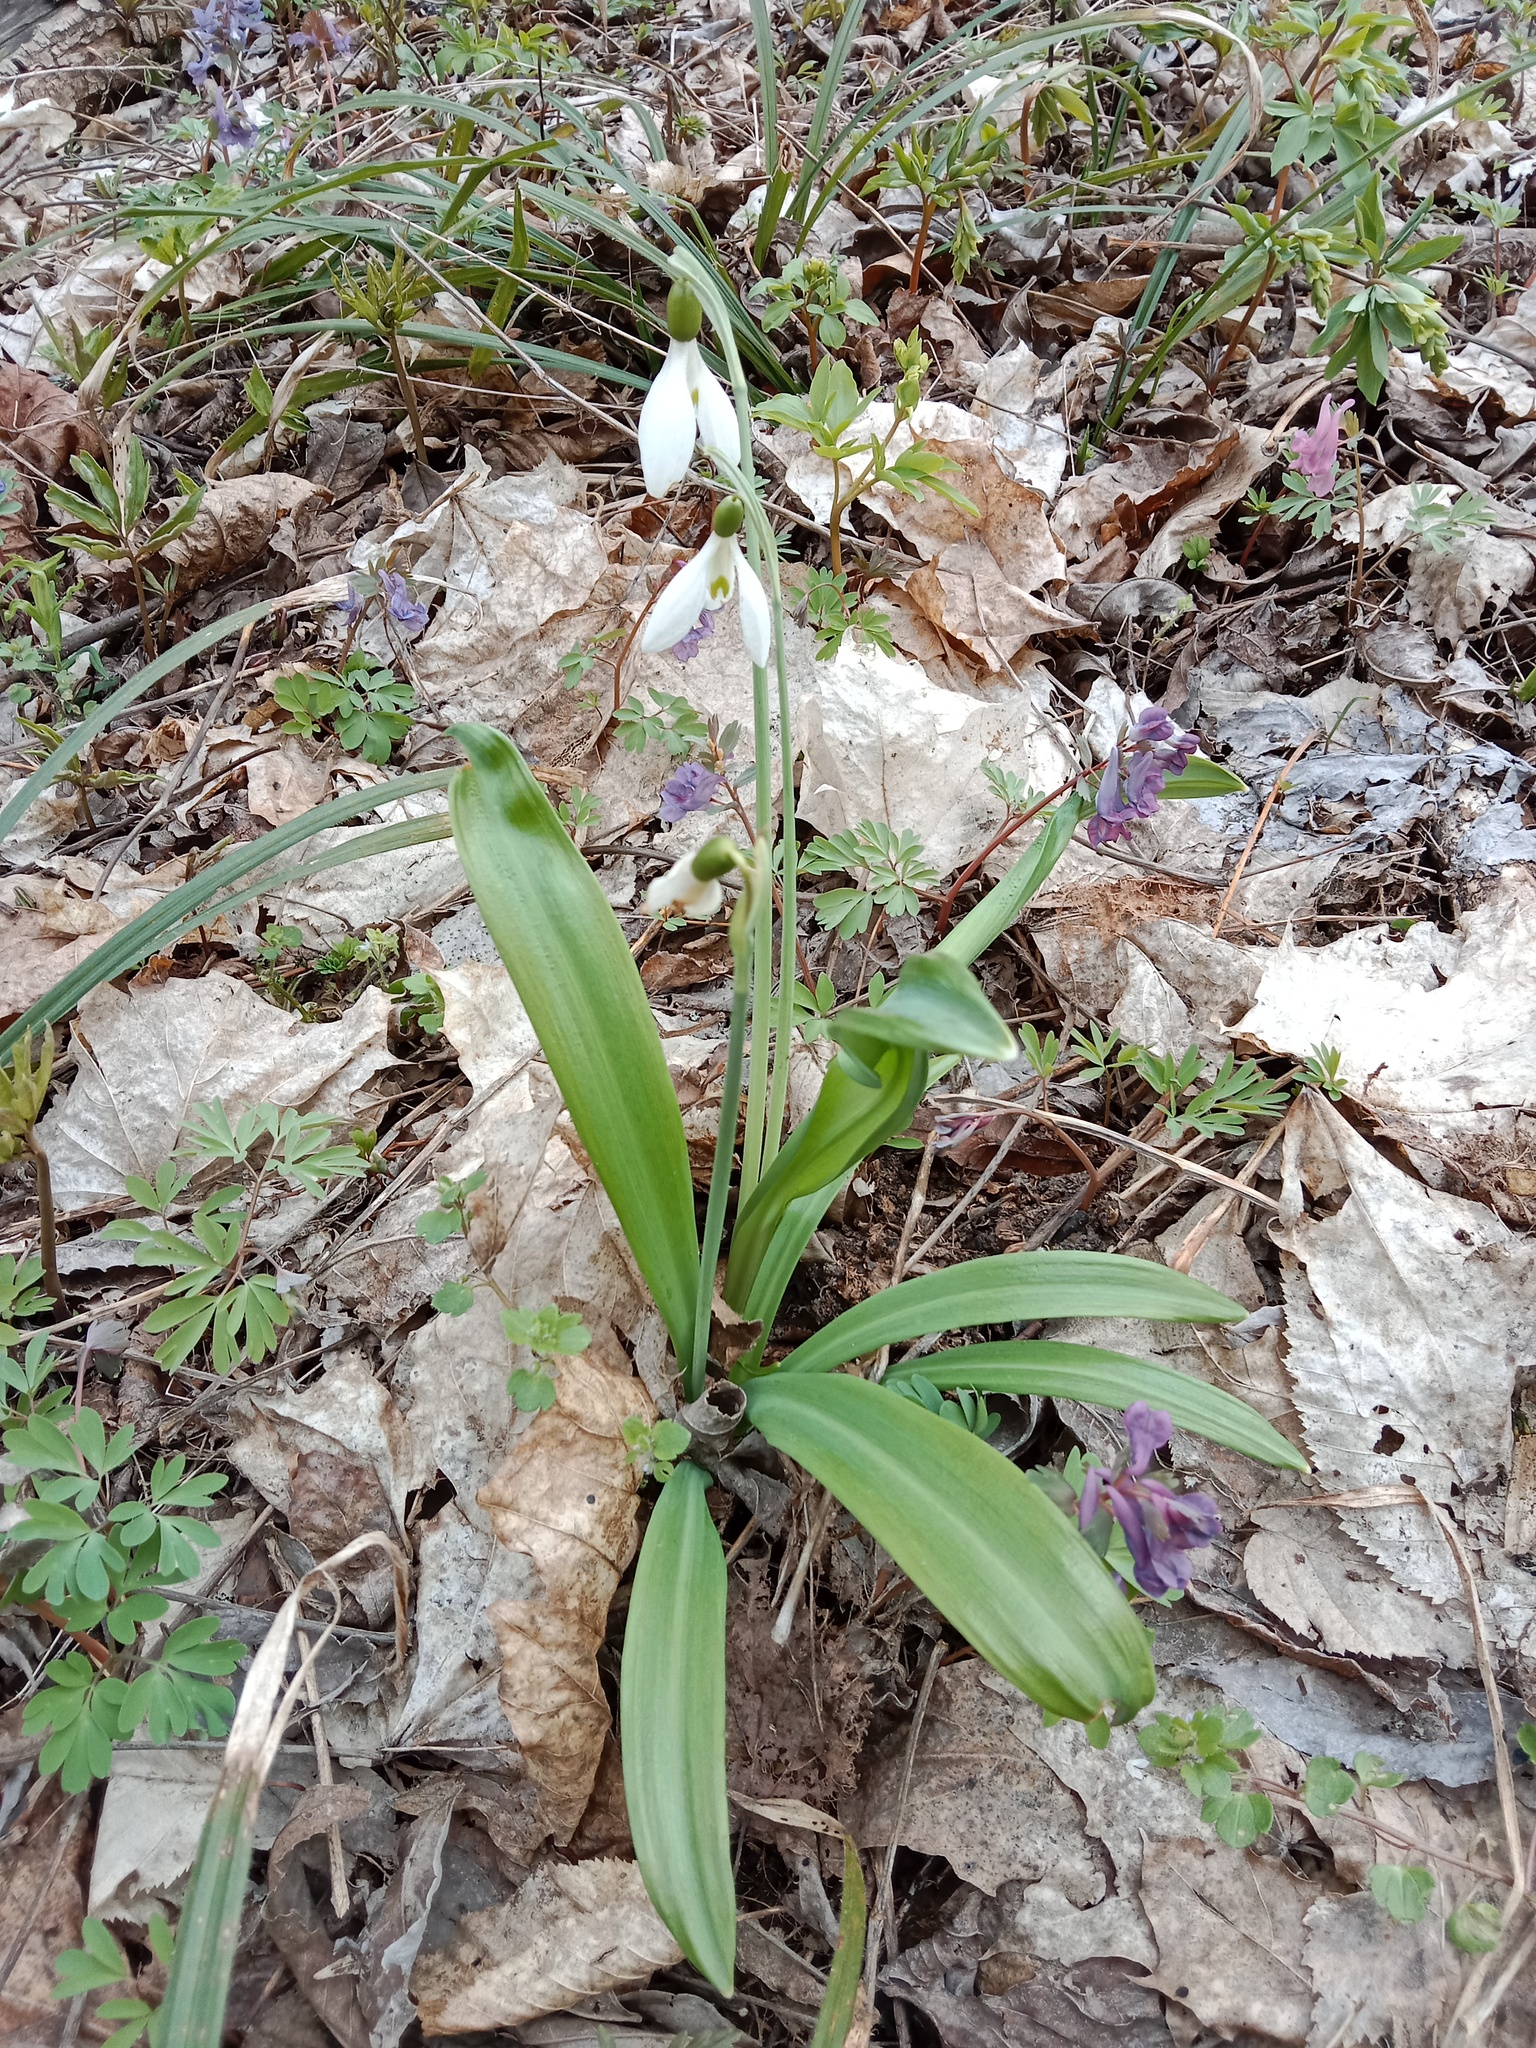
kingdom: Plantae
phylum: Tracheophyta
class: Liliopsida
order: Asparagales
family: Amaryllidaceae
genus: Galanthus
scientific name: Galanthus plicatus
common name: Pleated snowdrop
